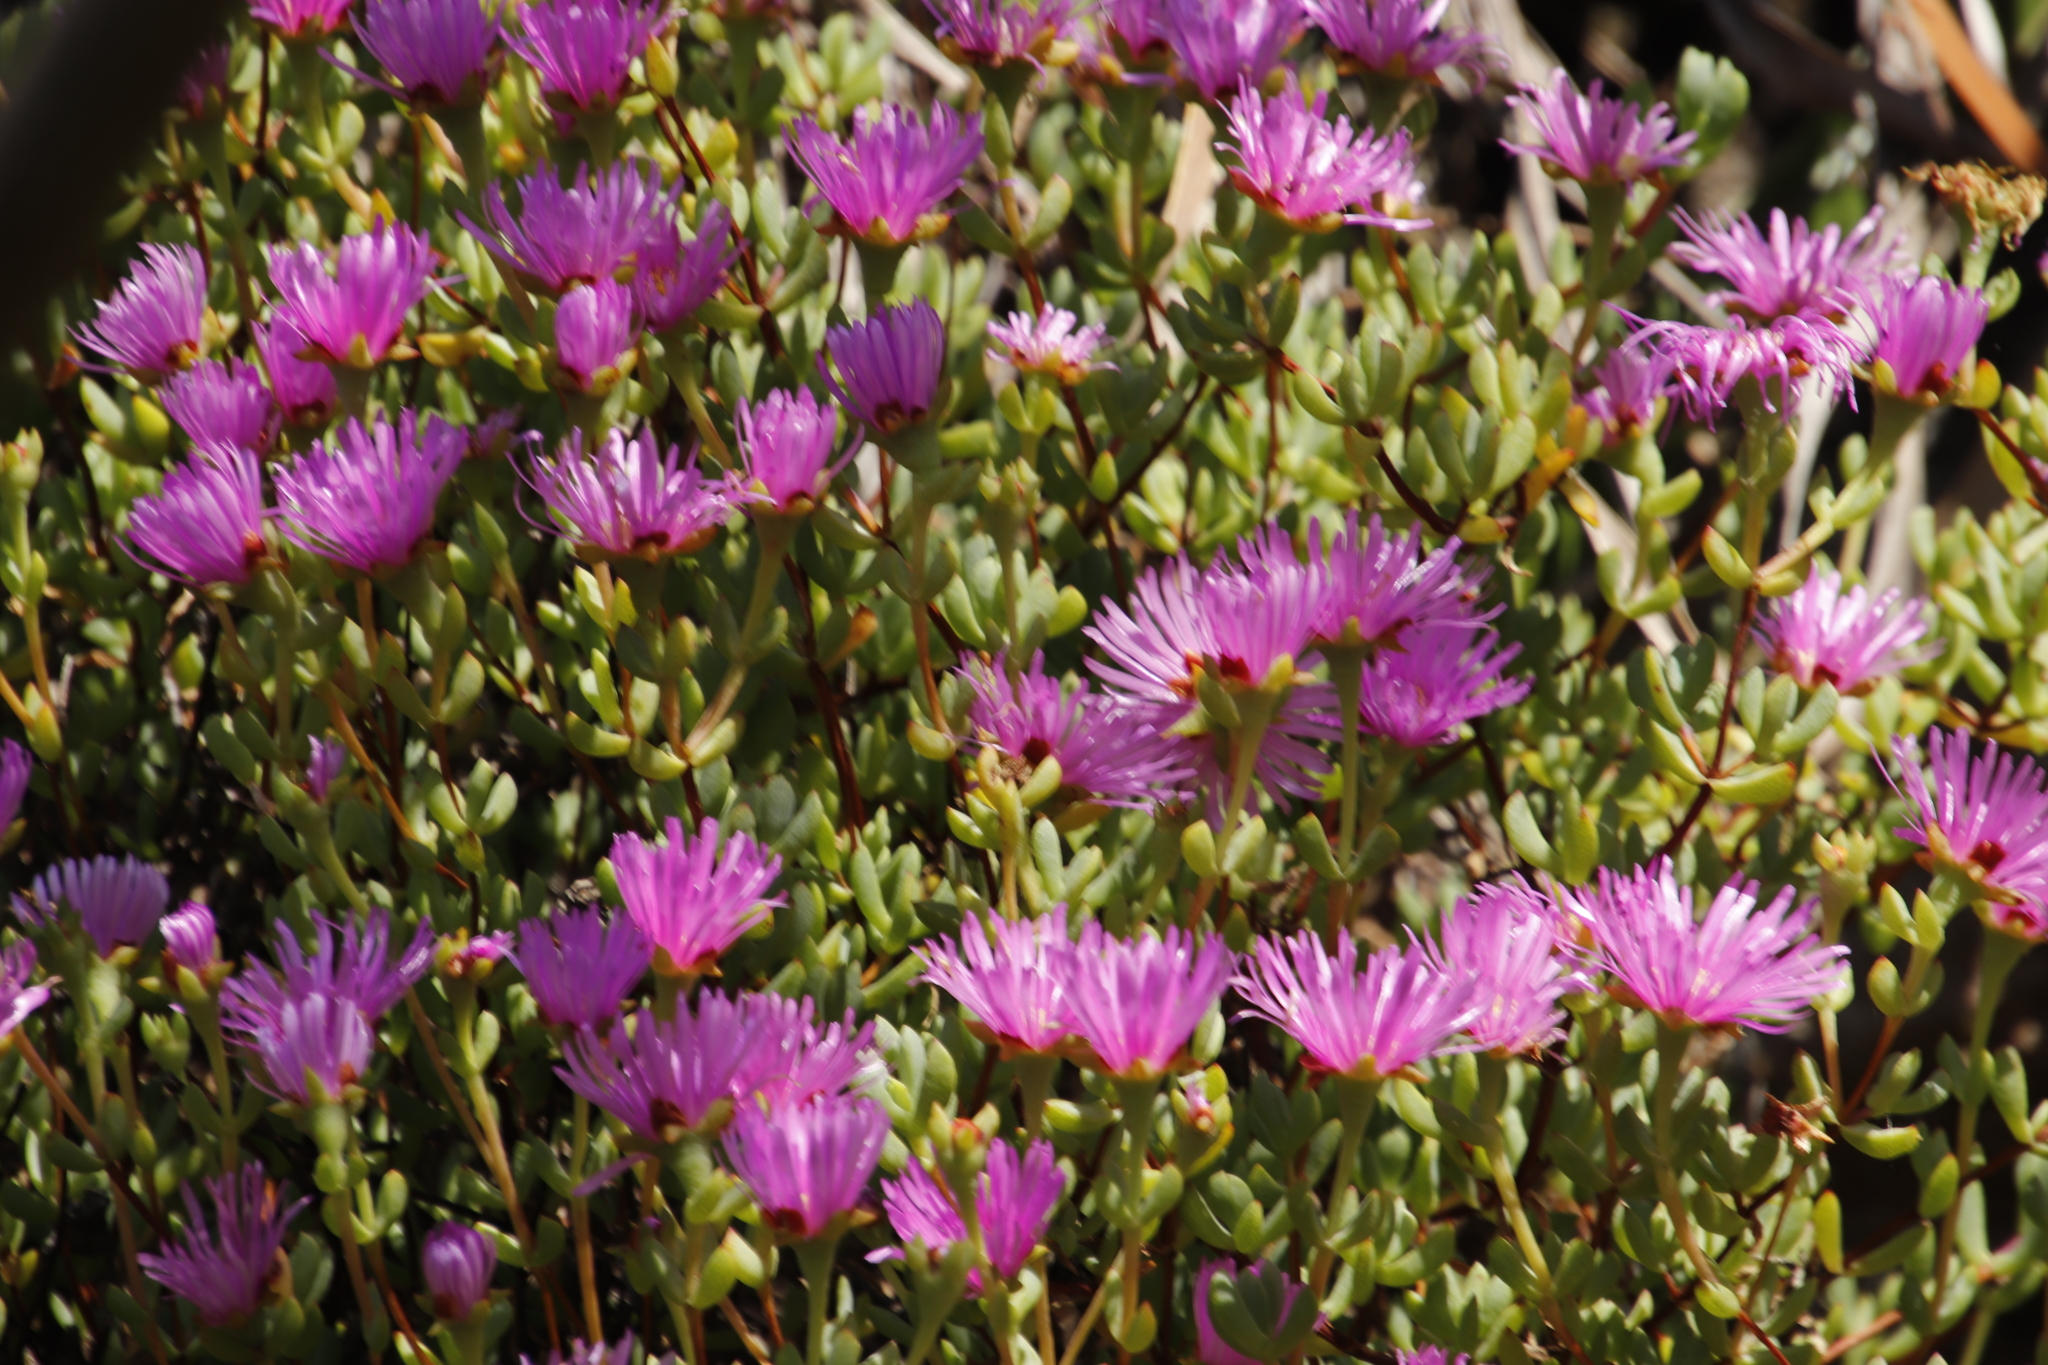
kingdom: Plantae
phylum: Tracheophyta
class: Magnoliopsida
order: Caryophyllales
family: Aizoaceae
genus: Oscularia
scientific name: Oscularia falciformis
